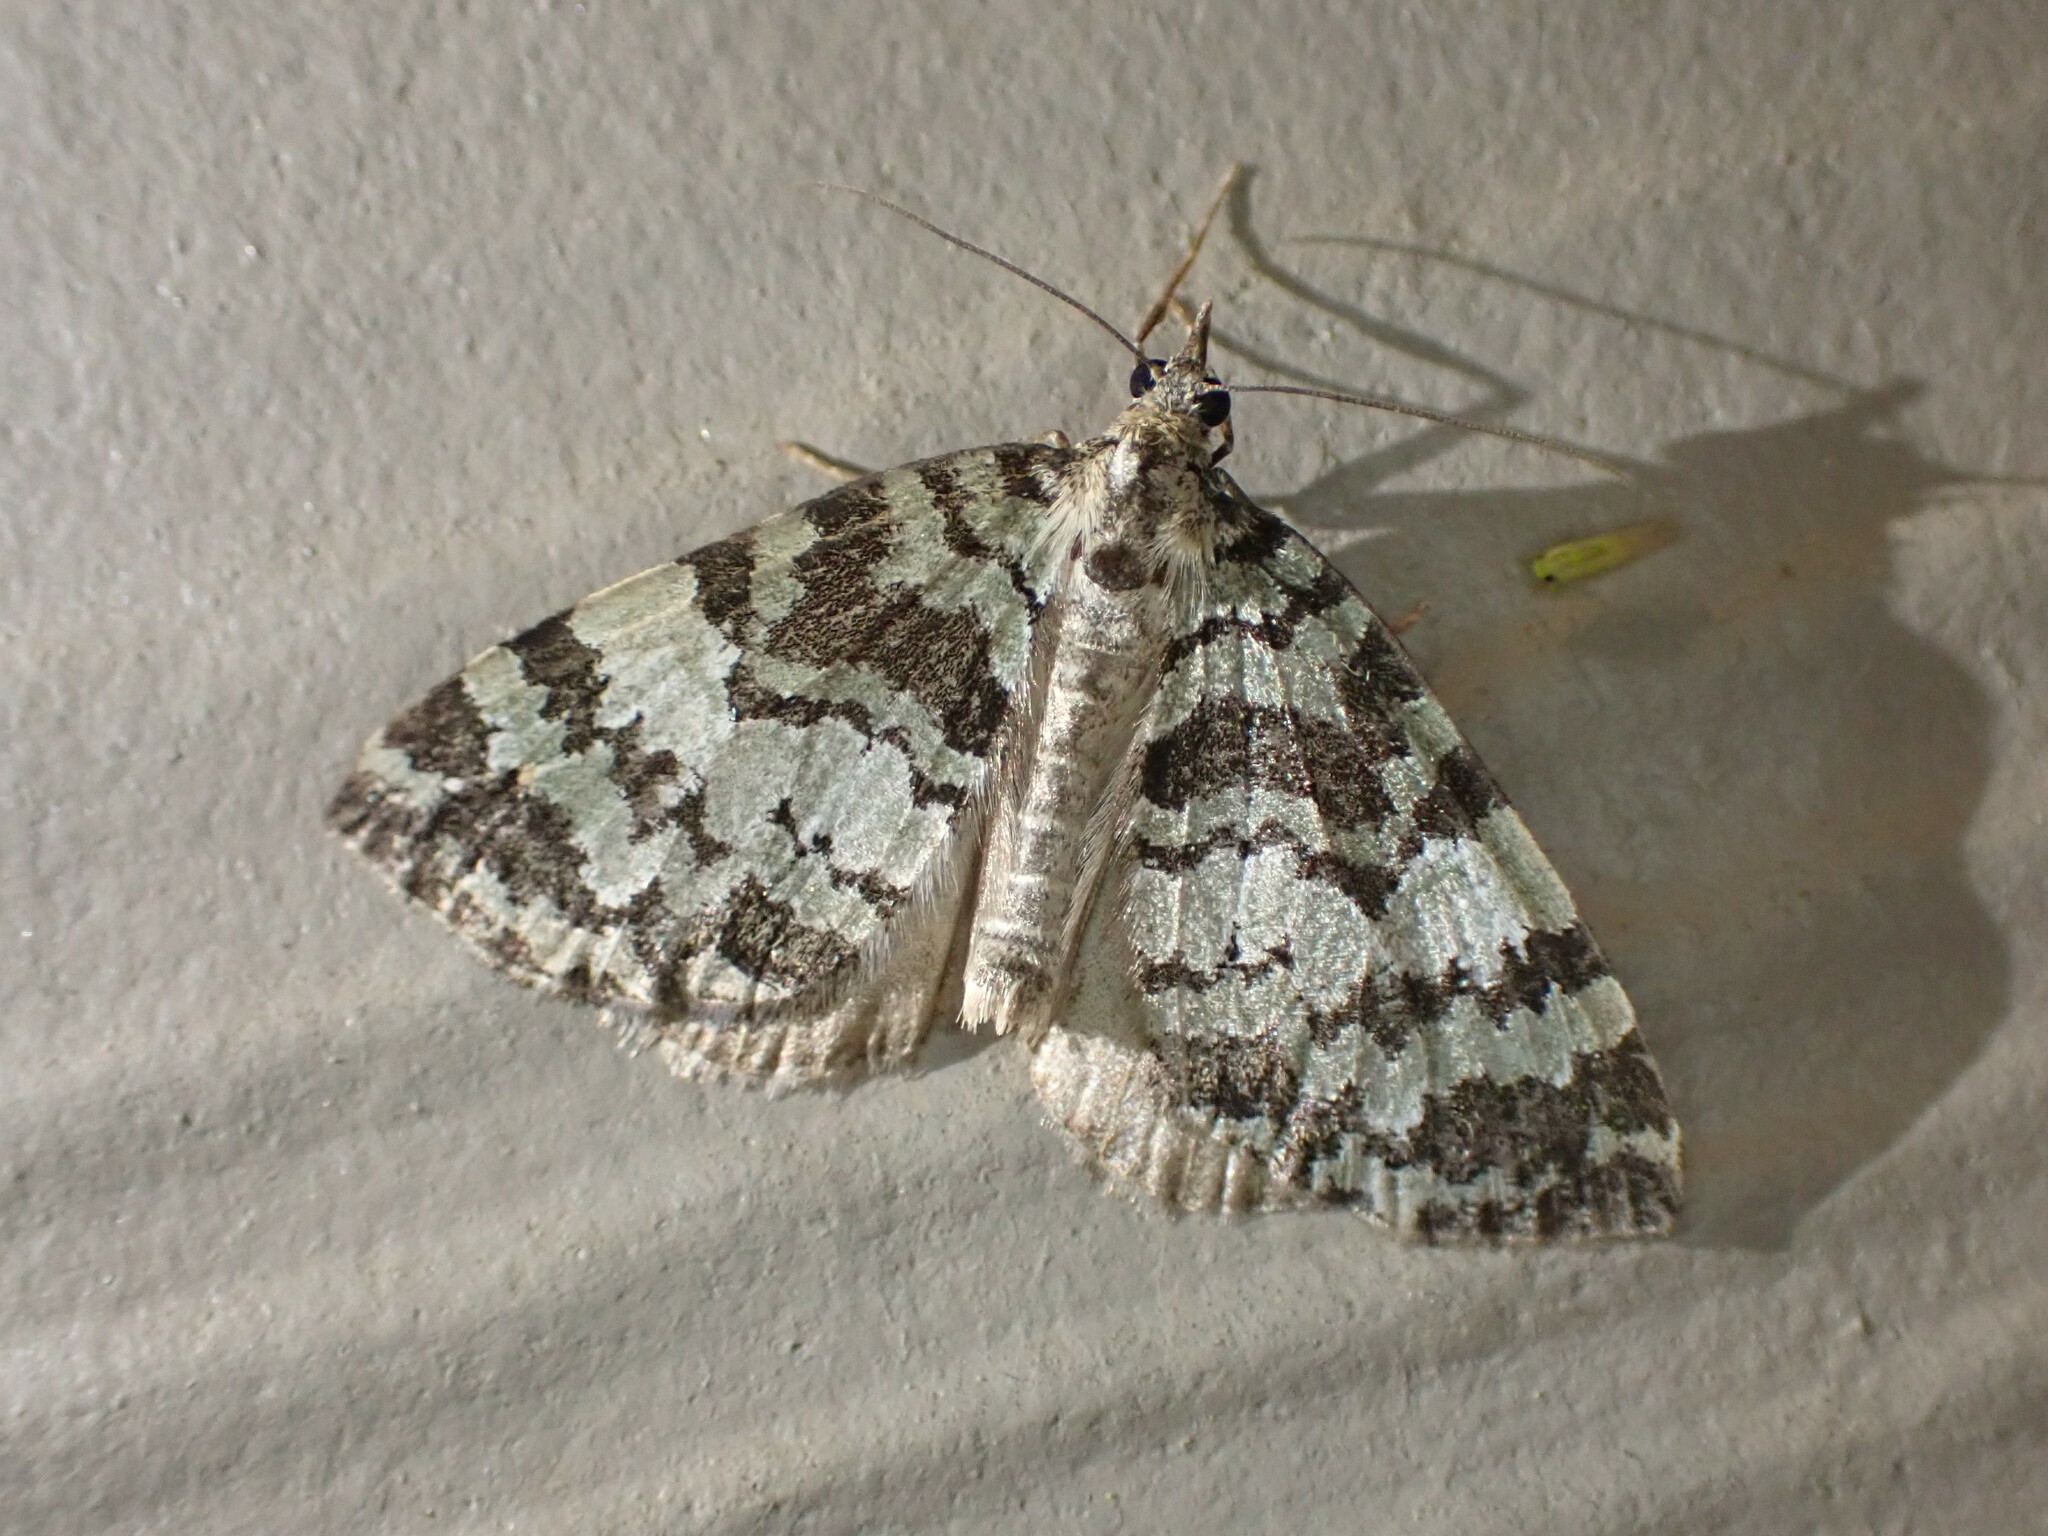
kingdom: Animalia
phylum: Arthropoda
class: Insecta
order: Lepidoptera
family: Geometridae
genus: Hydriomena
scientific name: Hydriomena speciosata
